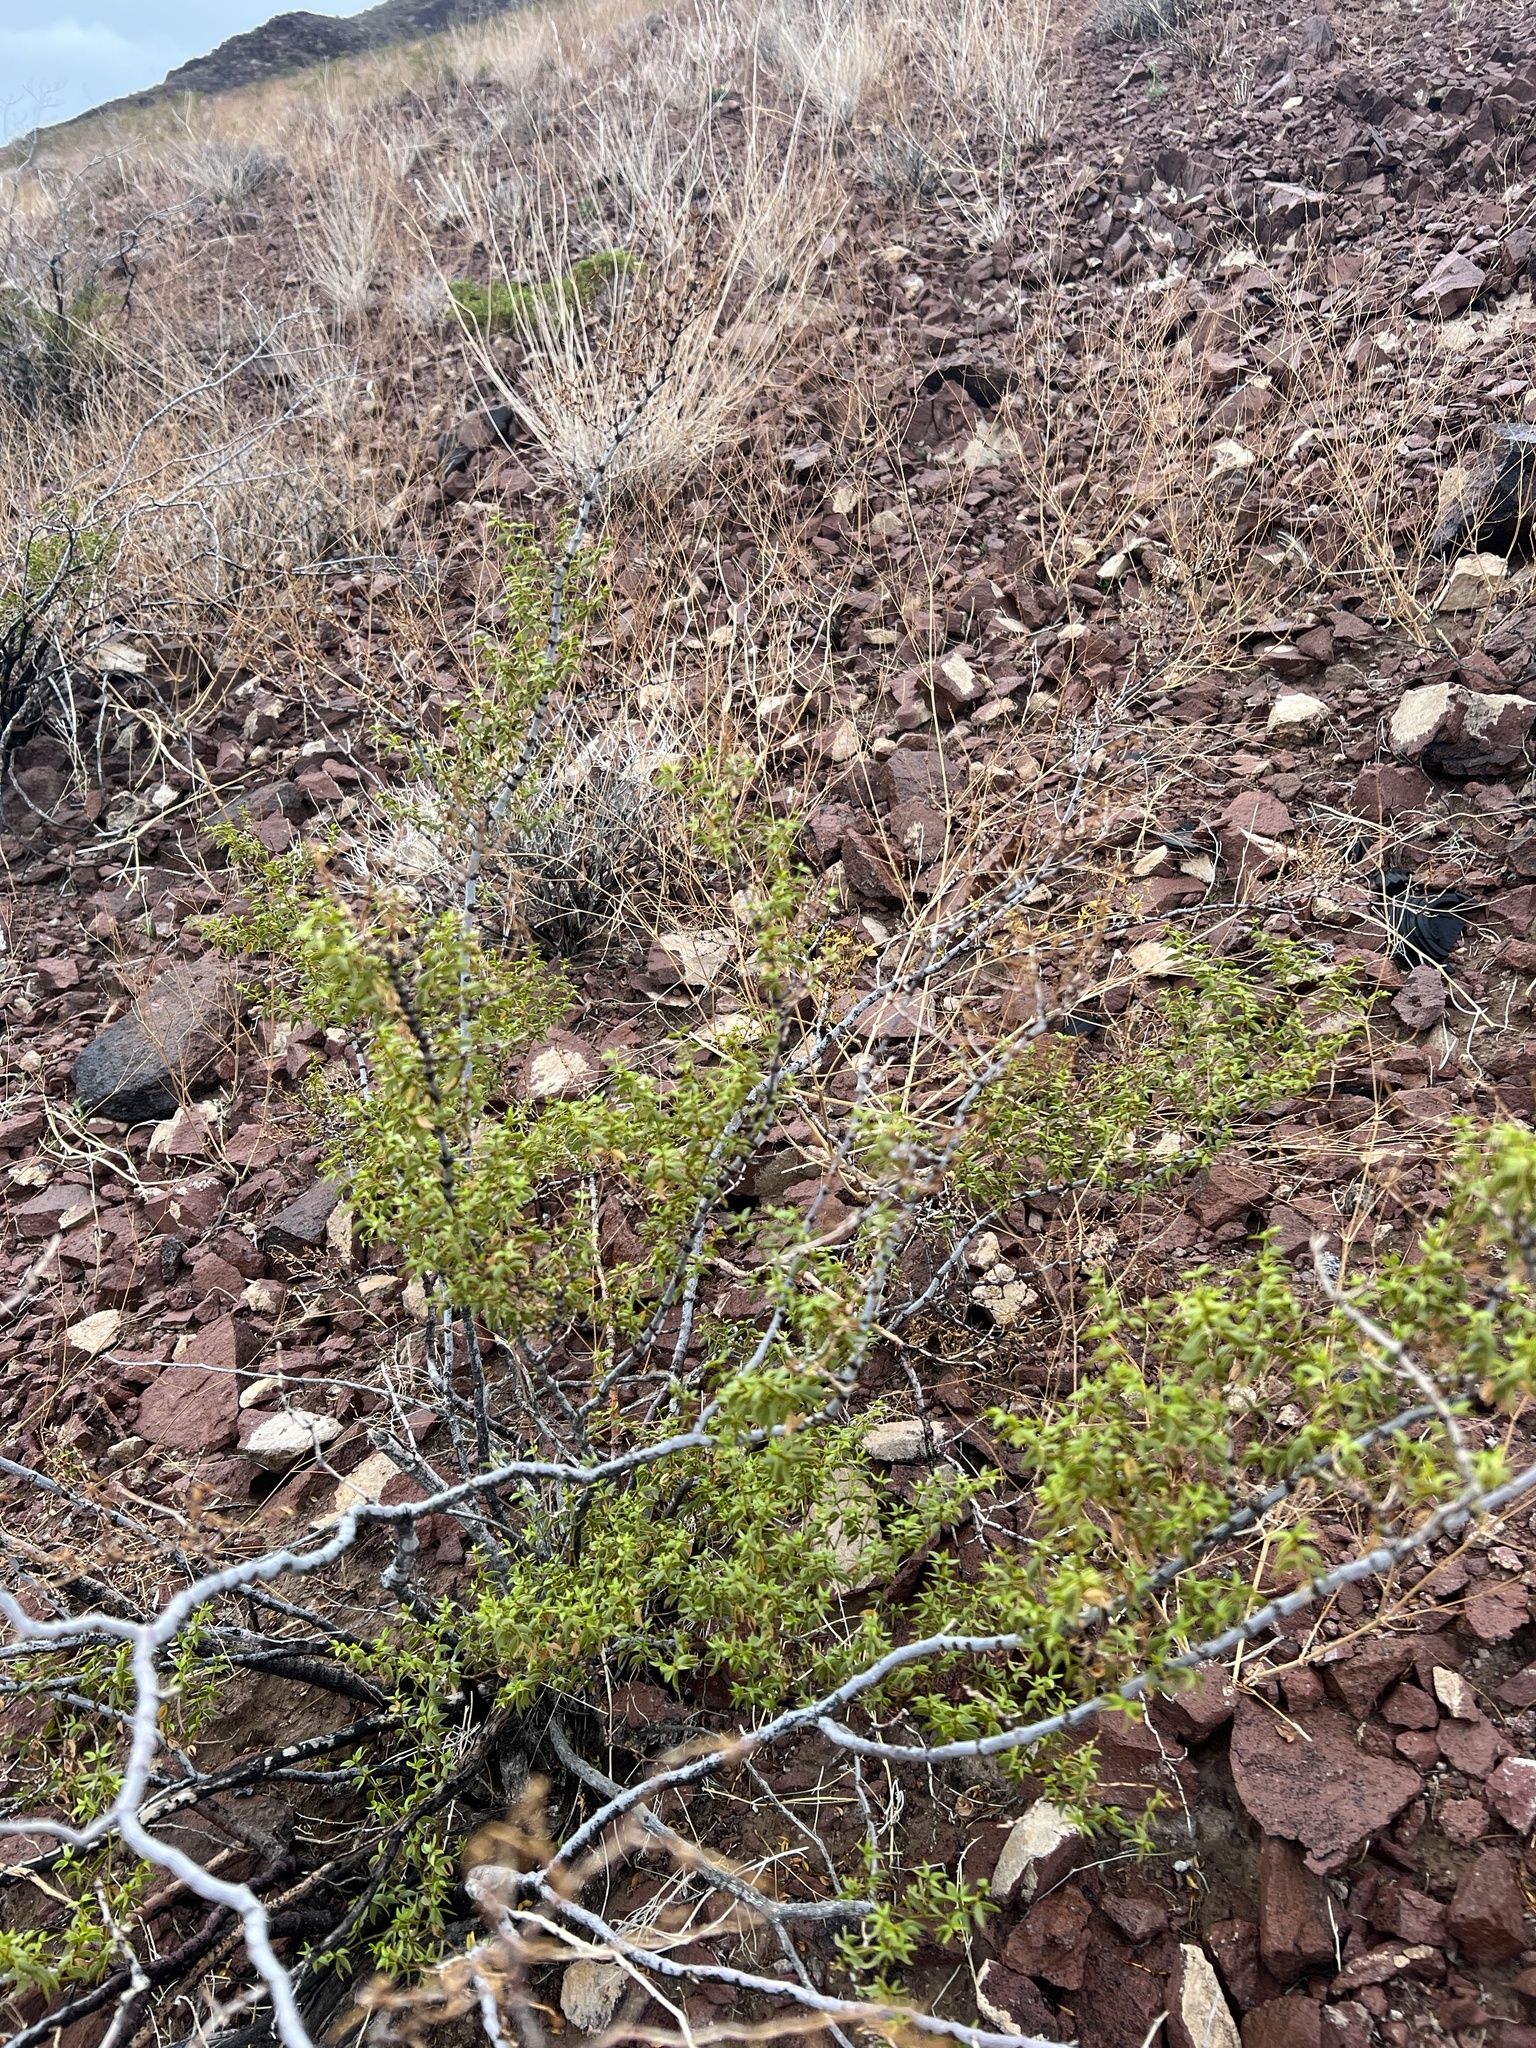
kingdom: Plantae
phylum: Tracheophyta
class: Magnoliopsida
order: Zygophyllales
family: Zygophyllaceae
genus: Larrea
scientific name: Larrea tridentata
